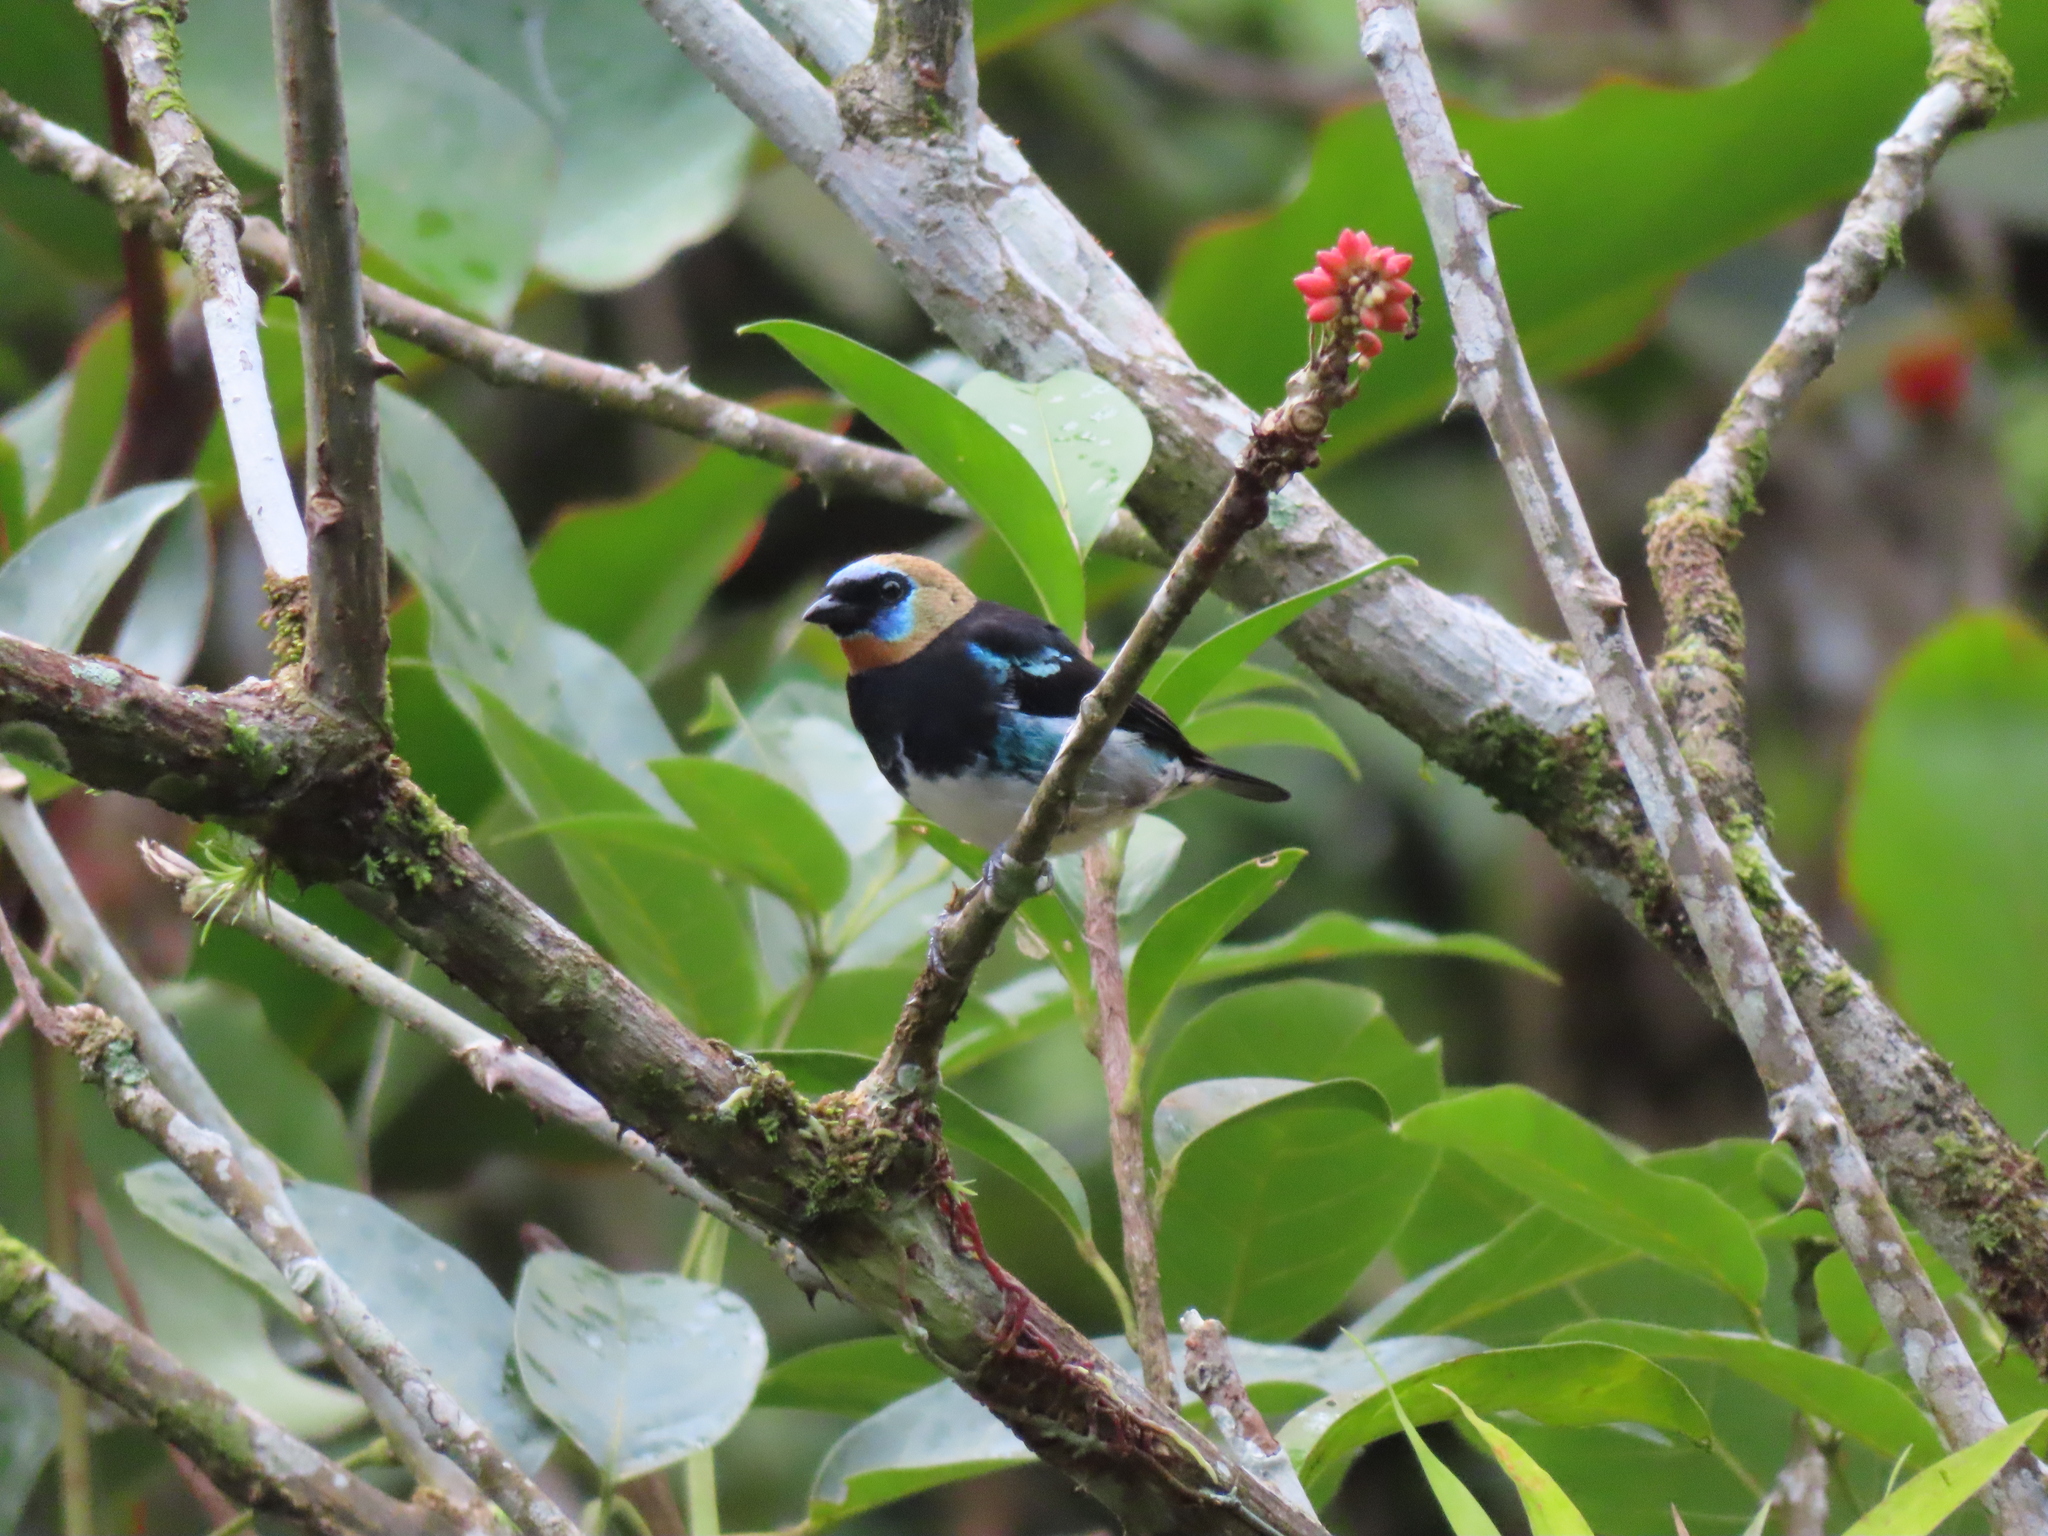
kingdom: Animalia
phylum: Chordata
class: Aves
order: Passeriformes
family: Thraupidae
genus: Stilpnia
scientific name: Stilpnia larvata
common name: Golden-hooded tanager
